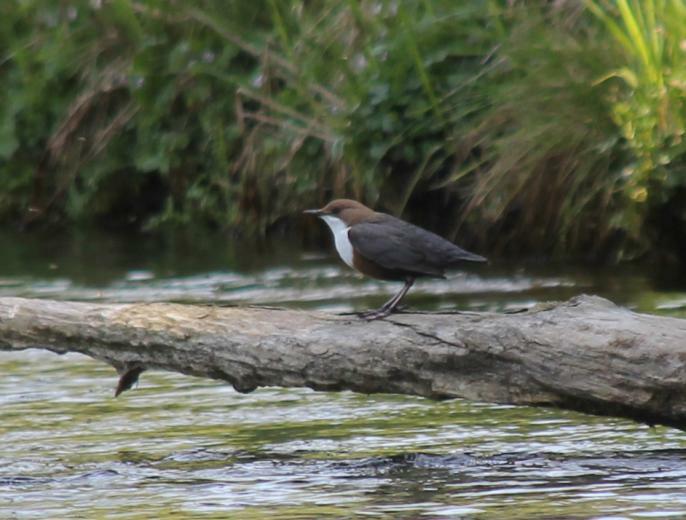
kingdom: Animalia
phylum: Chordata
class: Aves
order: Passeriformes
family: Cinclidae
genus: Cinclus
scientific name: Cinclus cinclus
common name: White-throated dipper
